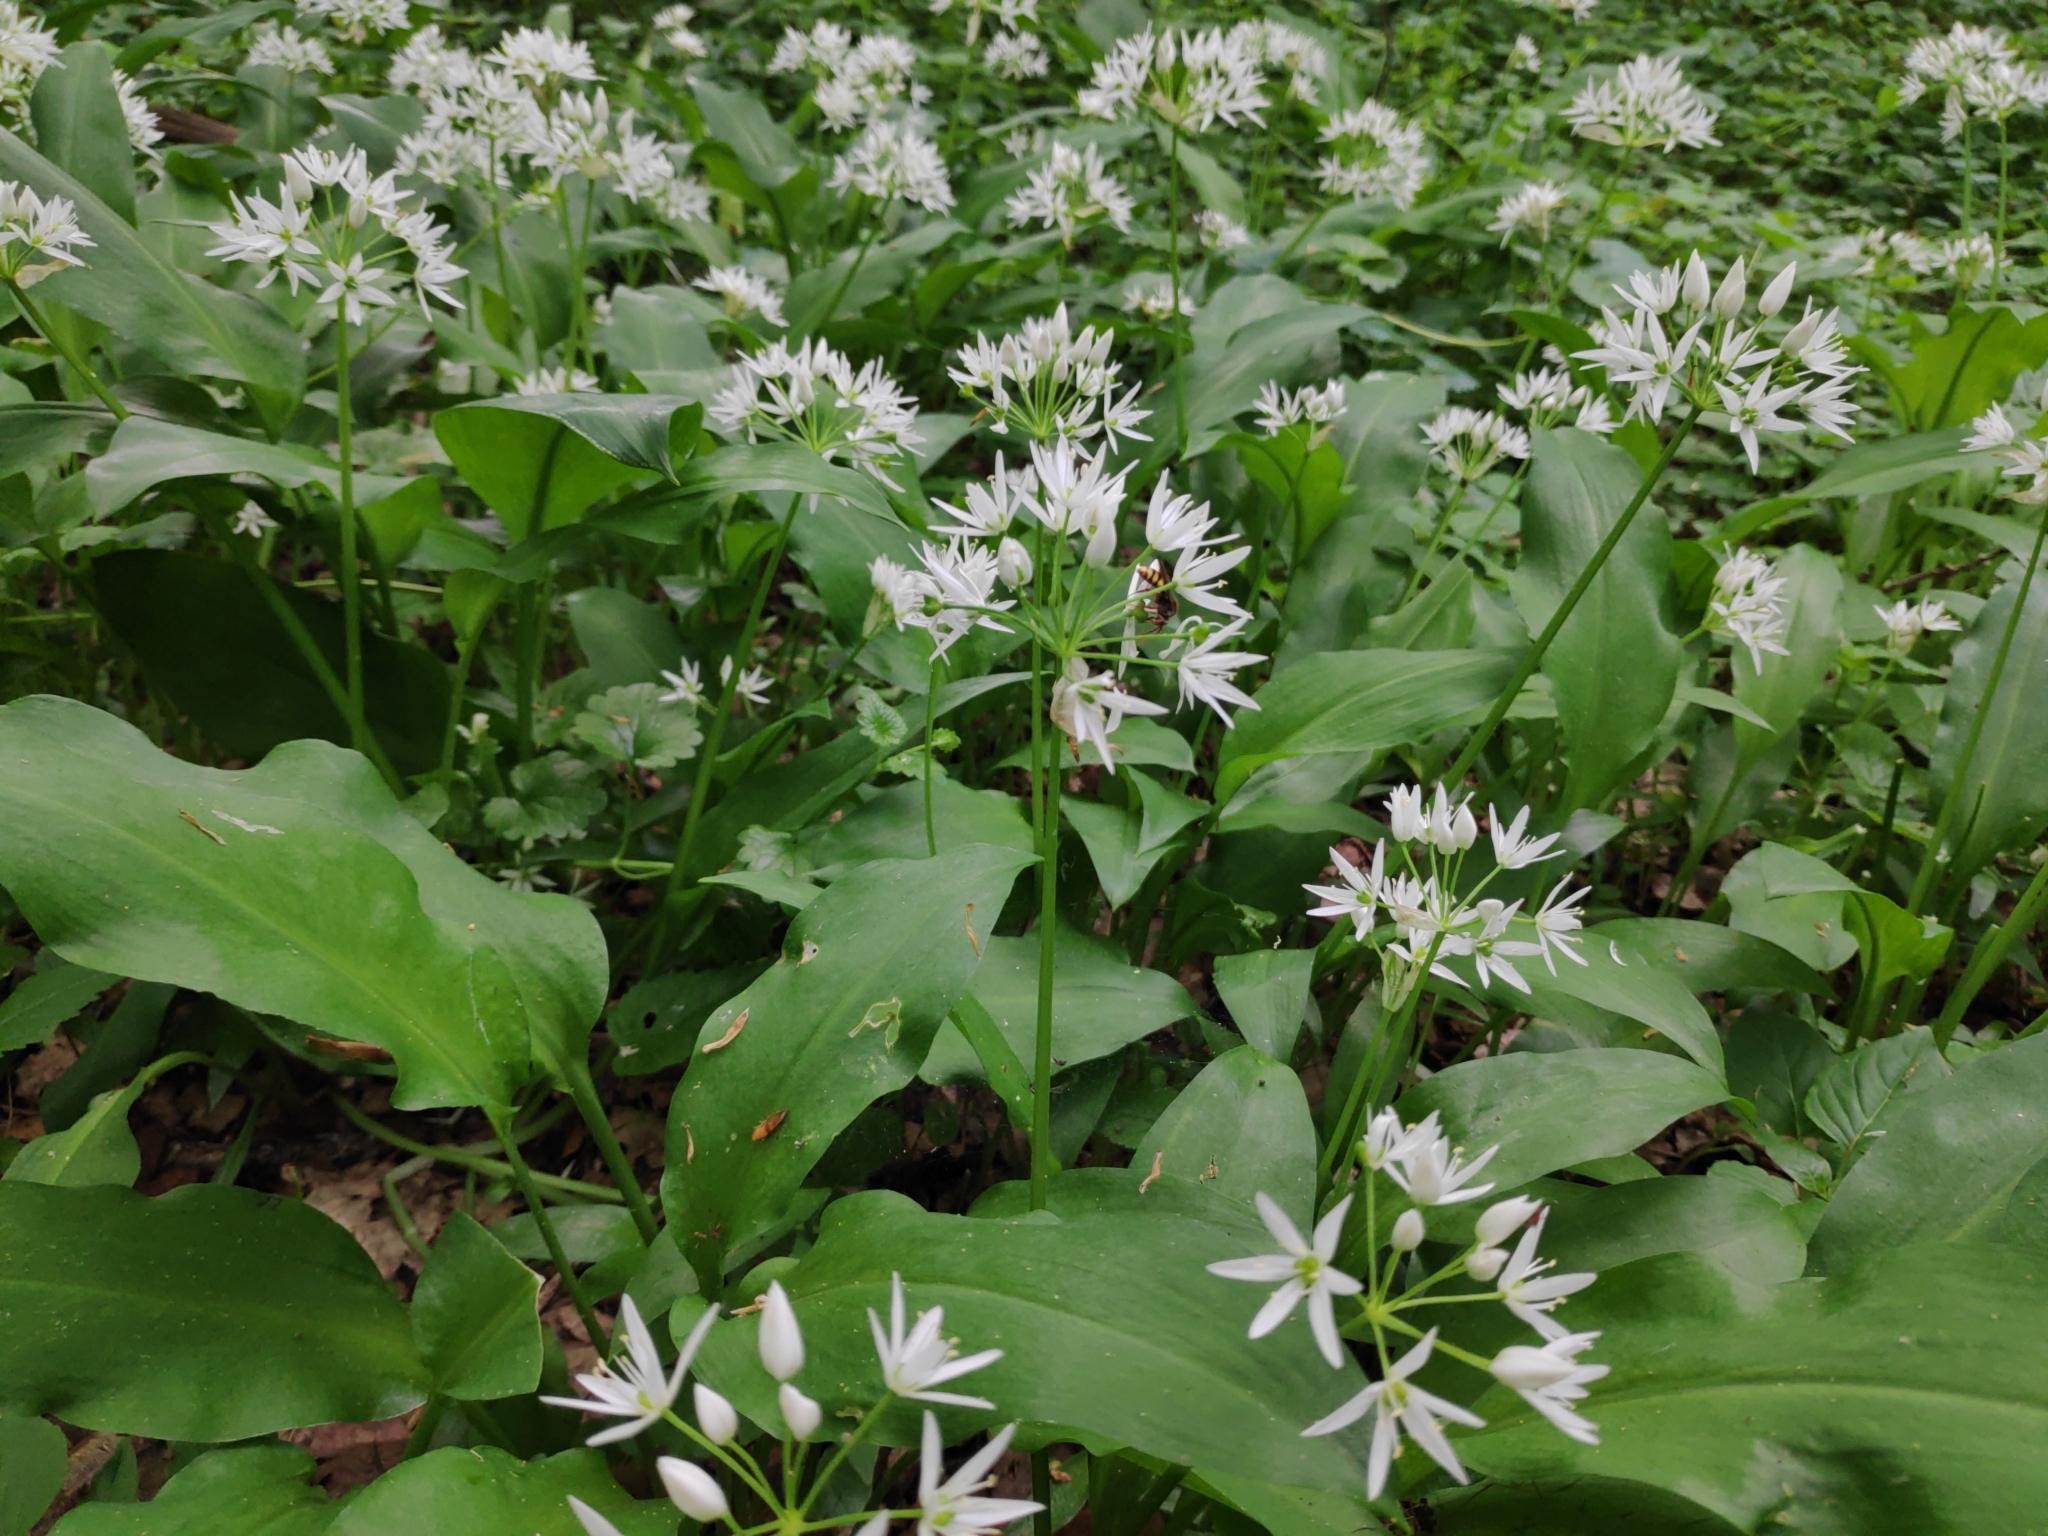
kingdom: Plantae
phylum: Tracheophyta
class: Liliopsida
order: Asparagales
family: Amaryllidaceae
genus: Allium
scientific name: Allium ursinum
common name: Ramsons
